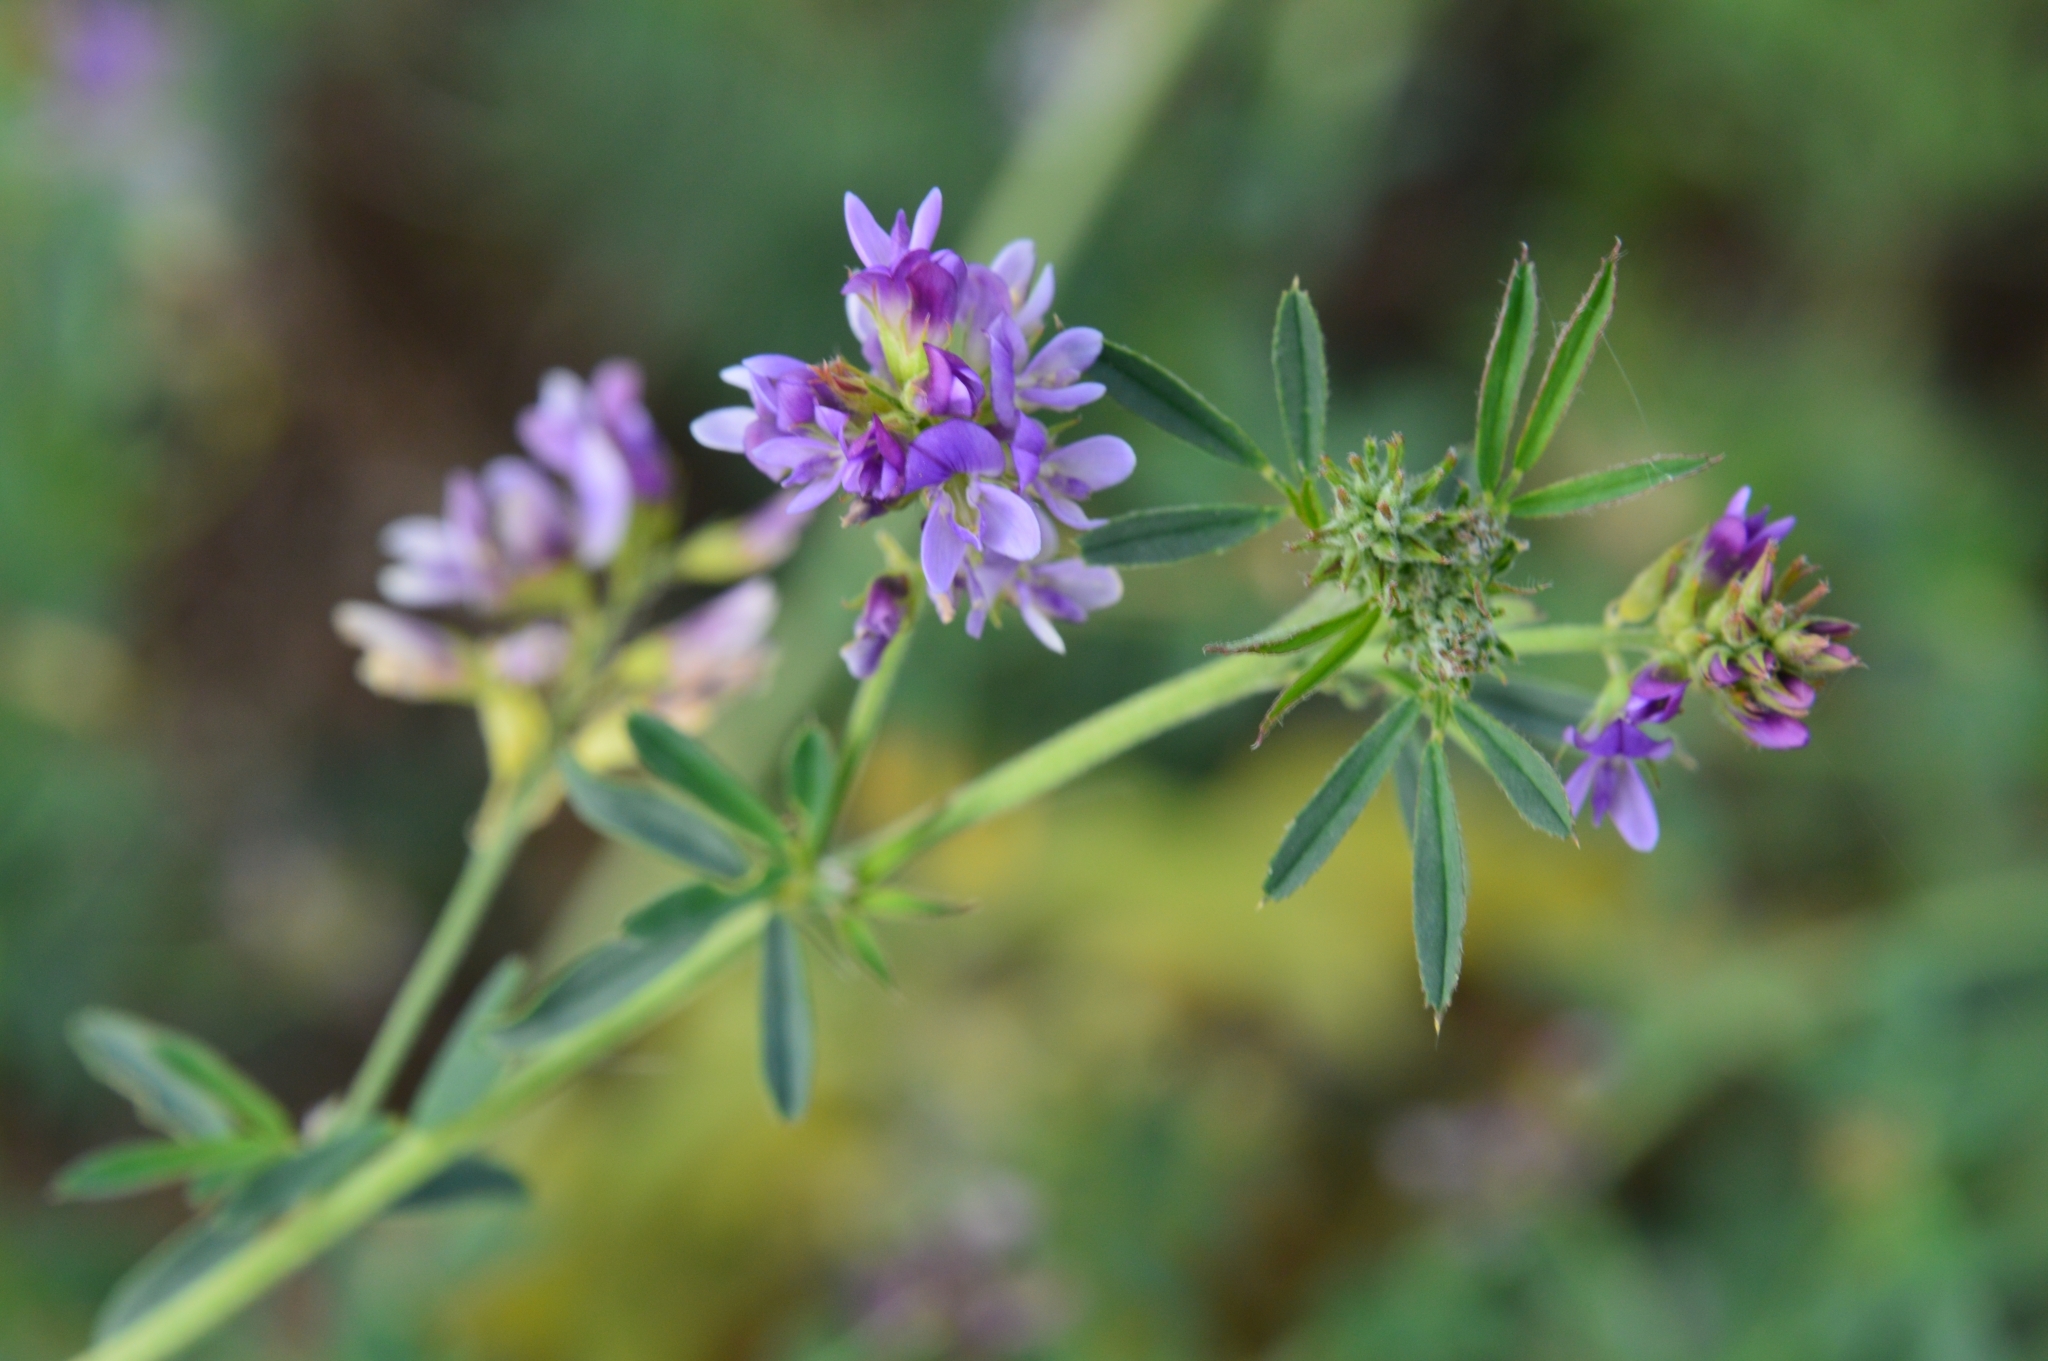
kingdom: Plantae
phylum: Tracheophyta
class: Magnoliopsida
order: Fabales
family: Fabaceae
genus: Medicago
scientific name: Medicago sativa
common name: Alfalfa
